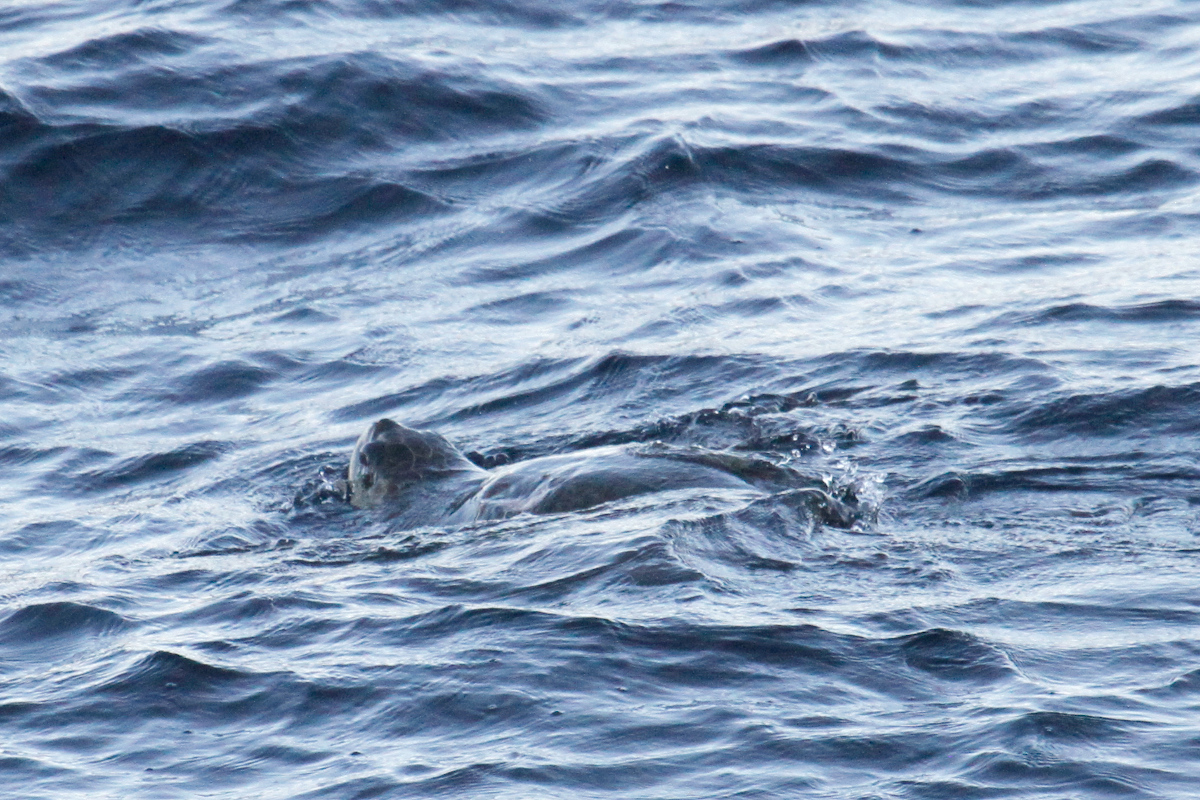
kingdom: Animalia
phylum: Chordata
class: Testudines
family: Cheloniidae
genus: Lepidochelys
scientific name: Lepidochelys olivacea
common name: Olive ridley
